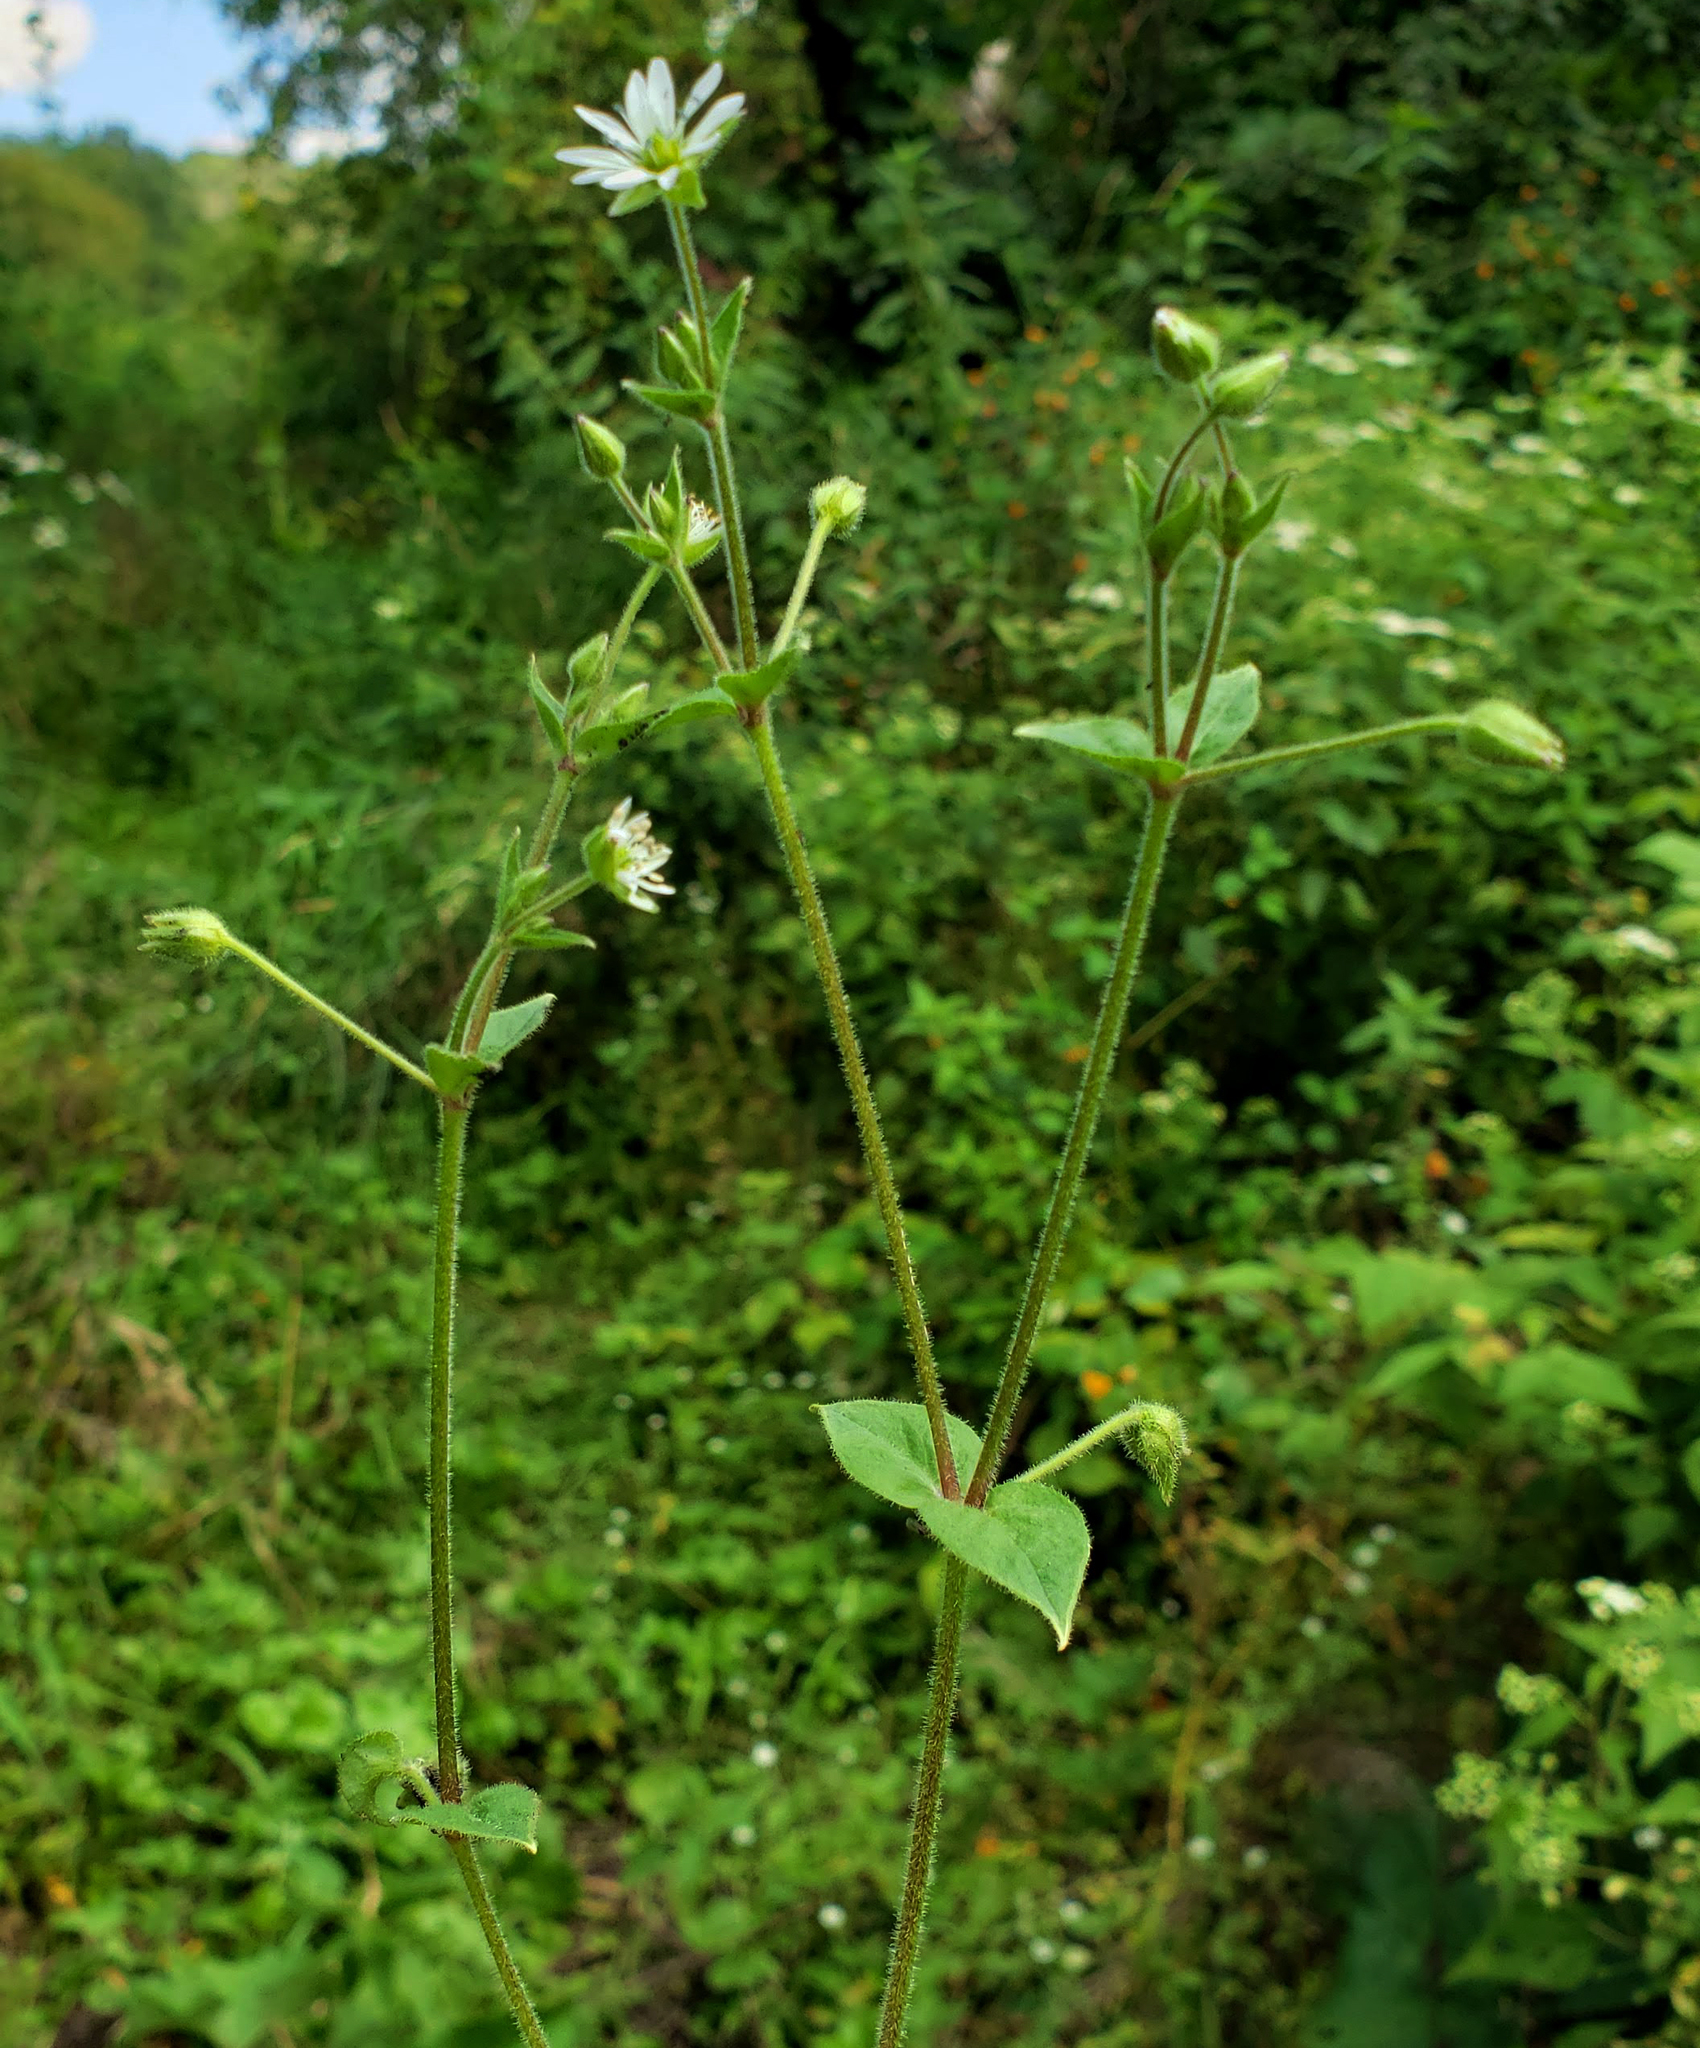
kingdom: Plantae
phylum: Tracheophyta
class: Magnoliopsida
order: Caryophyllales
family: Caryophyllaceae
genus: Stellaria
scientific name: Stellaria aquatica
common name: Water chickweed
